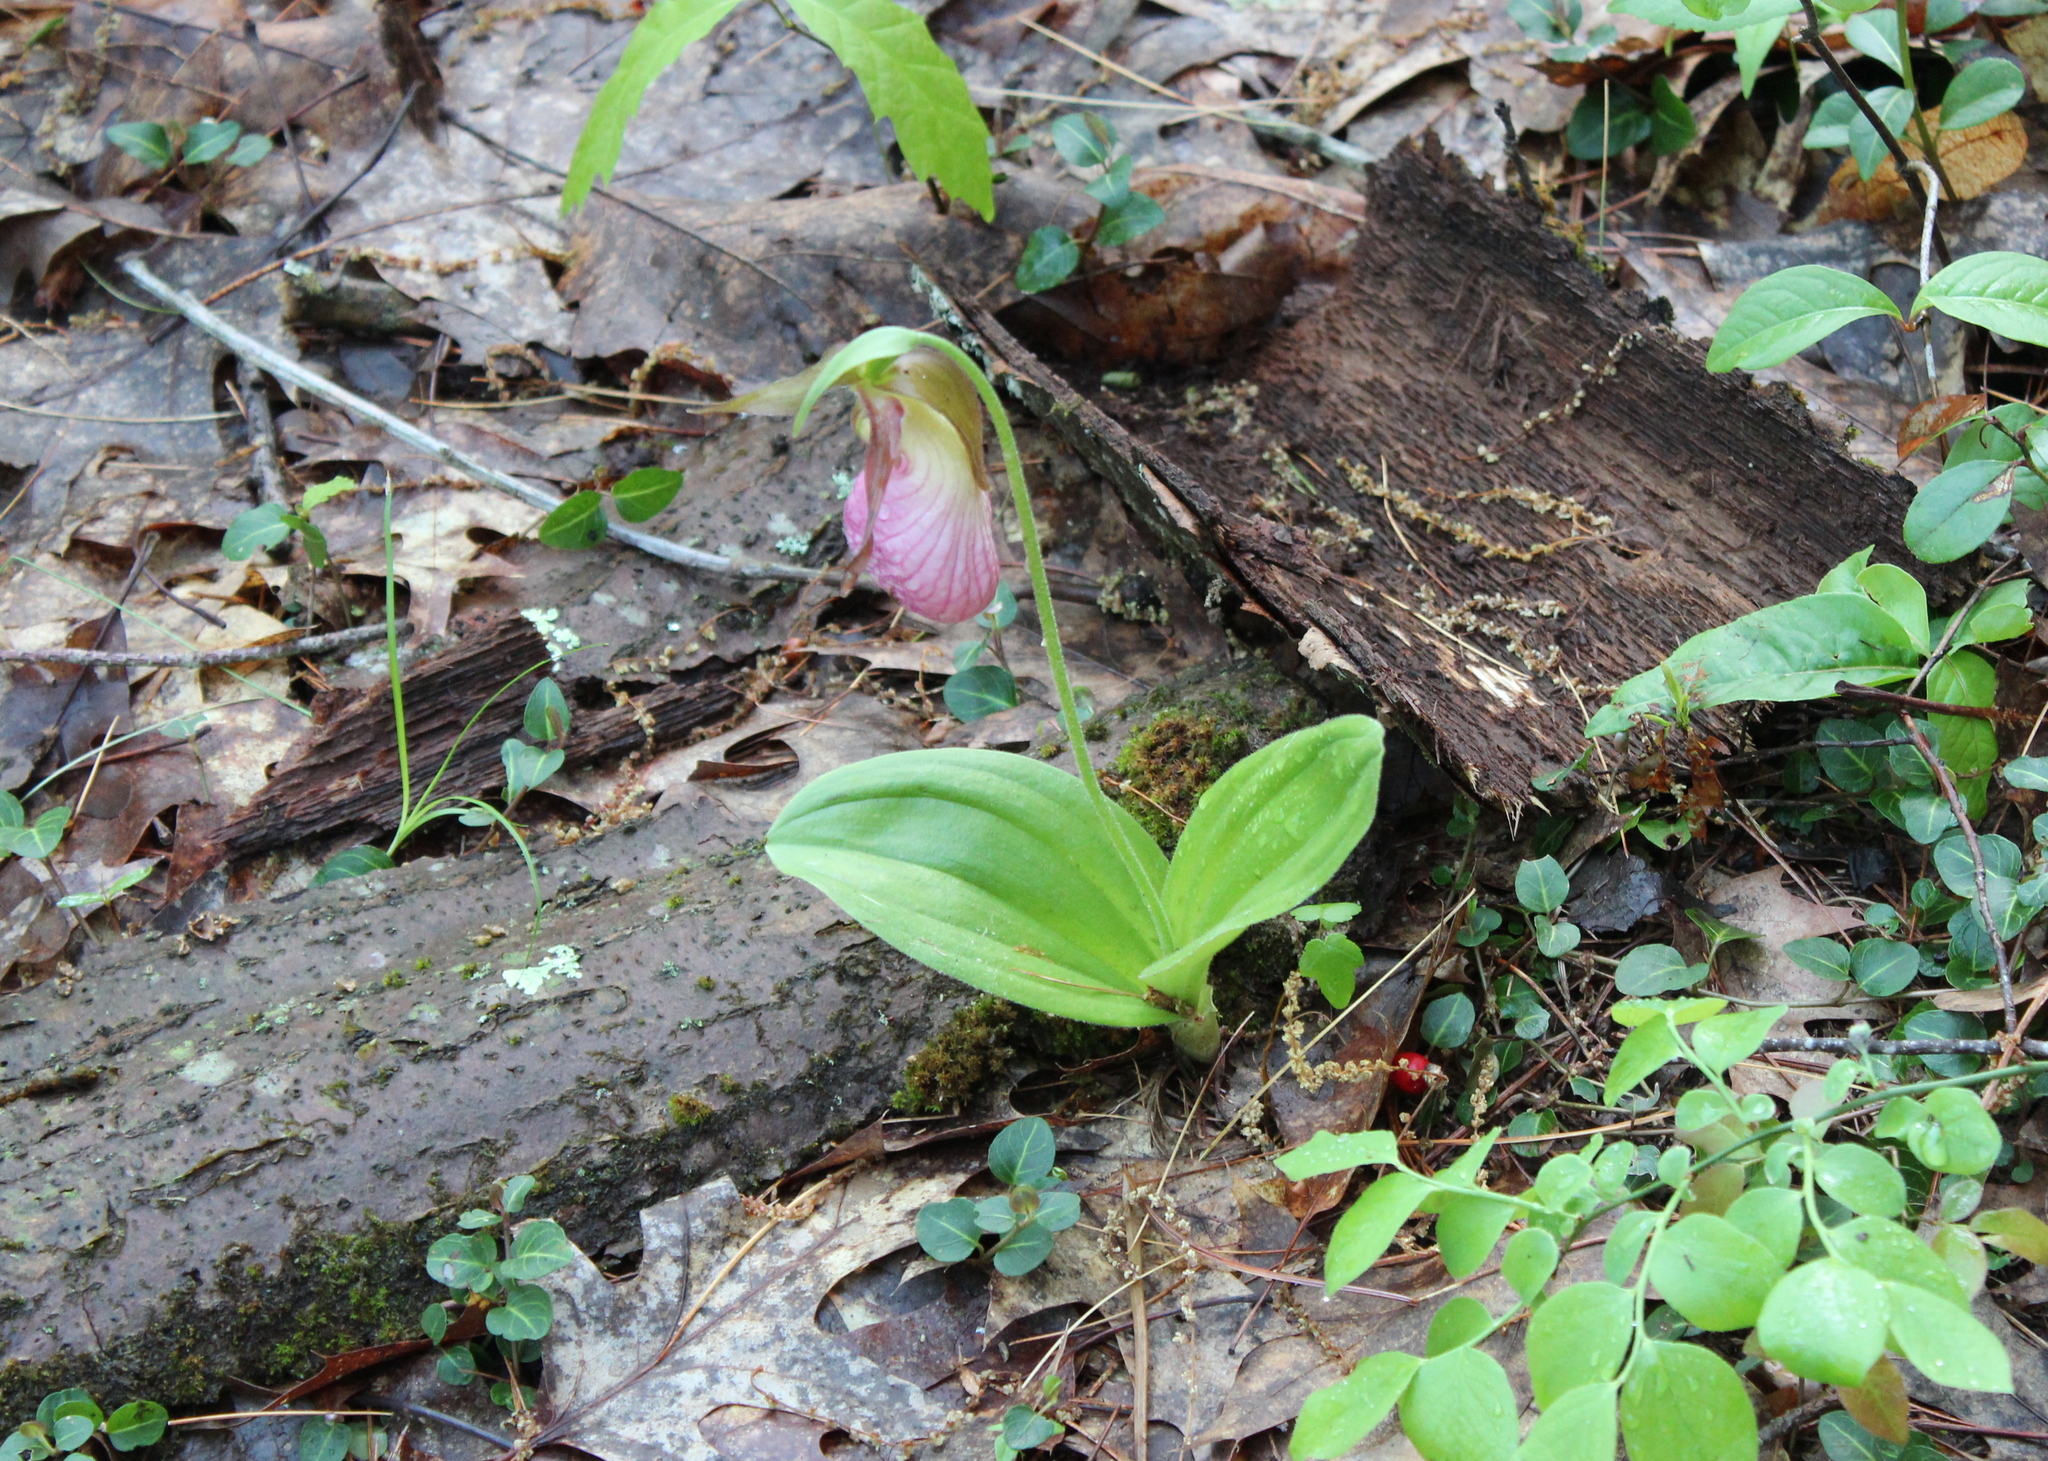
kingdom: Plantae
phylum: Tracheophyta
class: Liliopsida
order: Asparagales
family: Orchidaceae
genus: Cypripedium
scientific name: Cypripedium acaule
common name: Pink lady's-slipper
